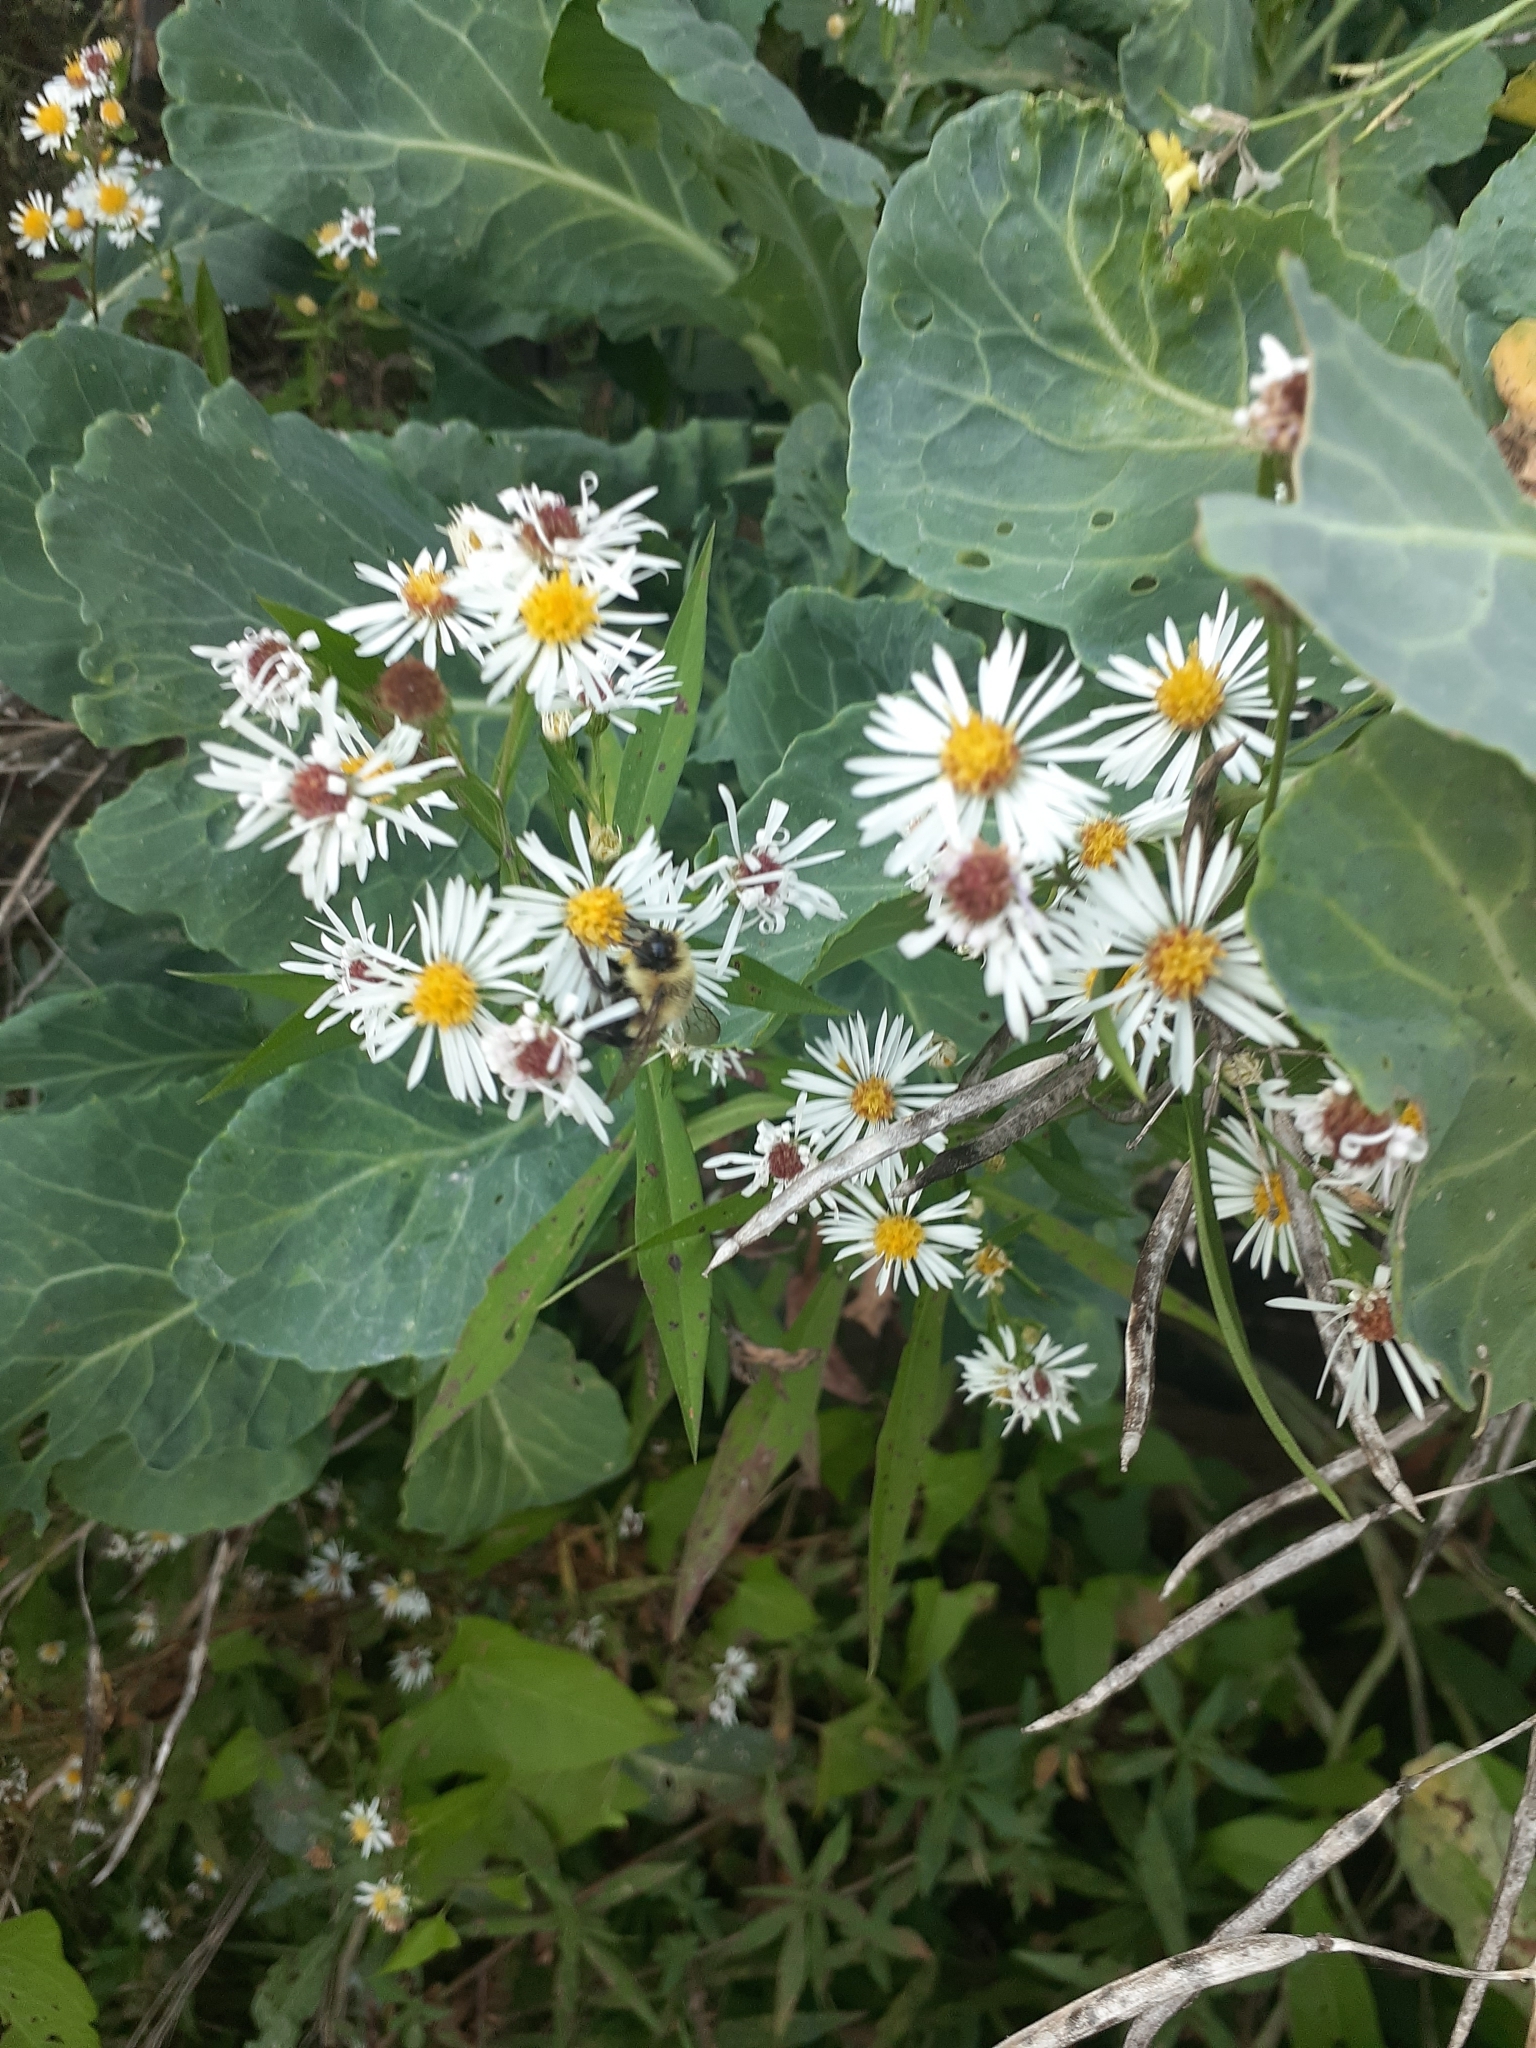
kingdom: Animalia
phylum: Arthropoda
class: Insecta
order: Hymenoptera
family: Apidae
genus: Bombus
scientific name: Bombus impatiens
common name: Common eastern bumble bee
